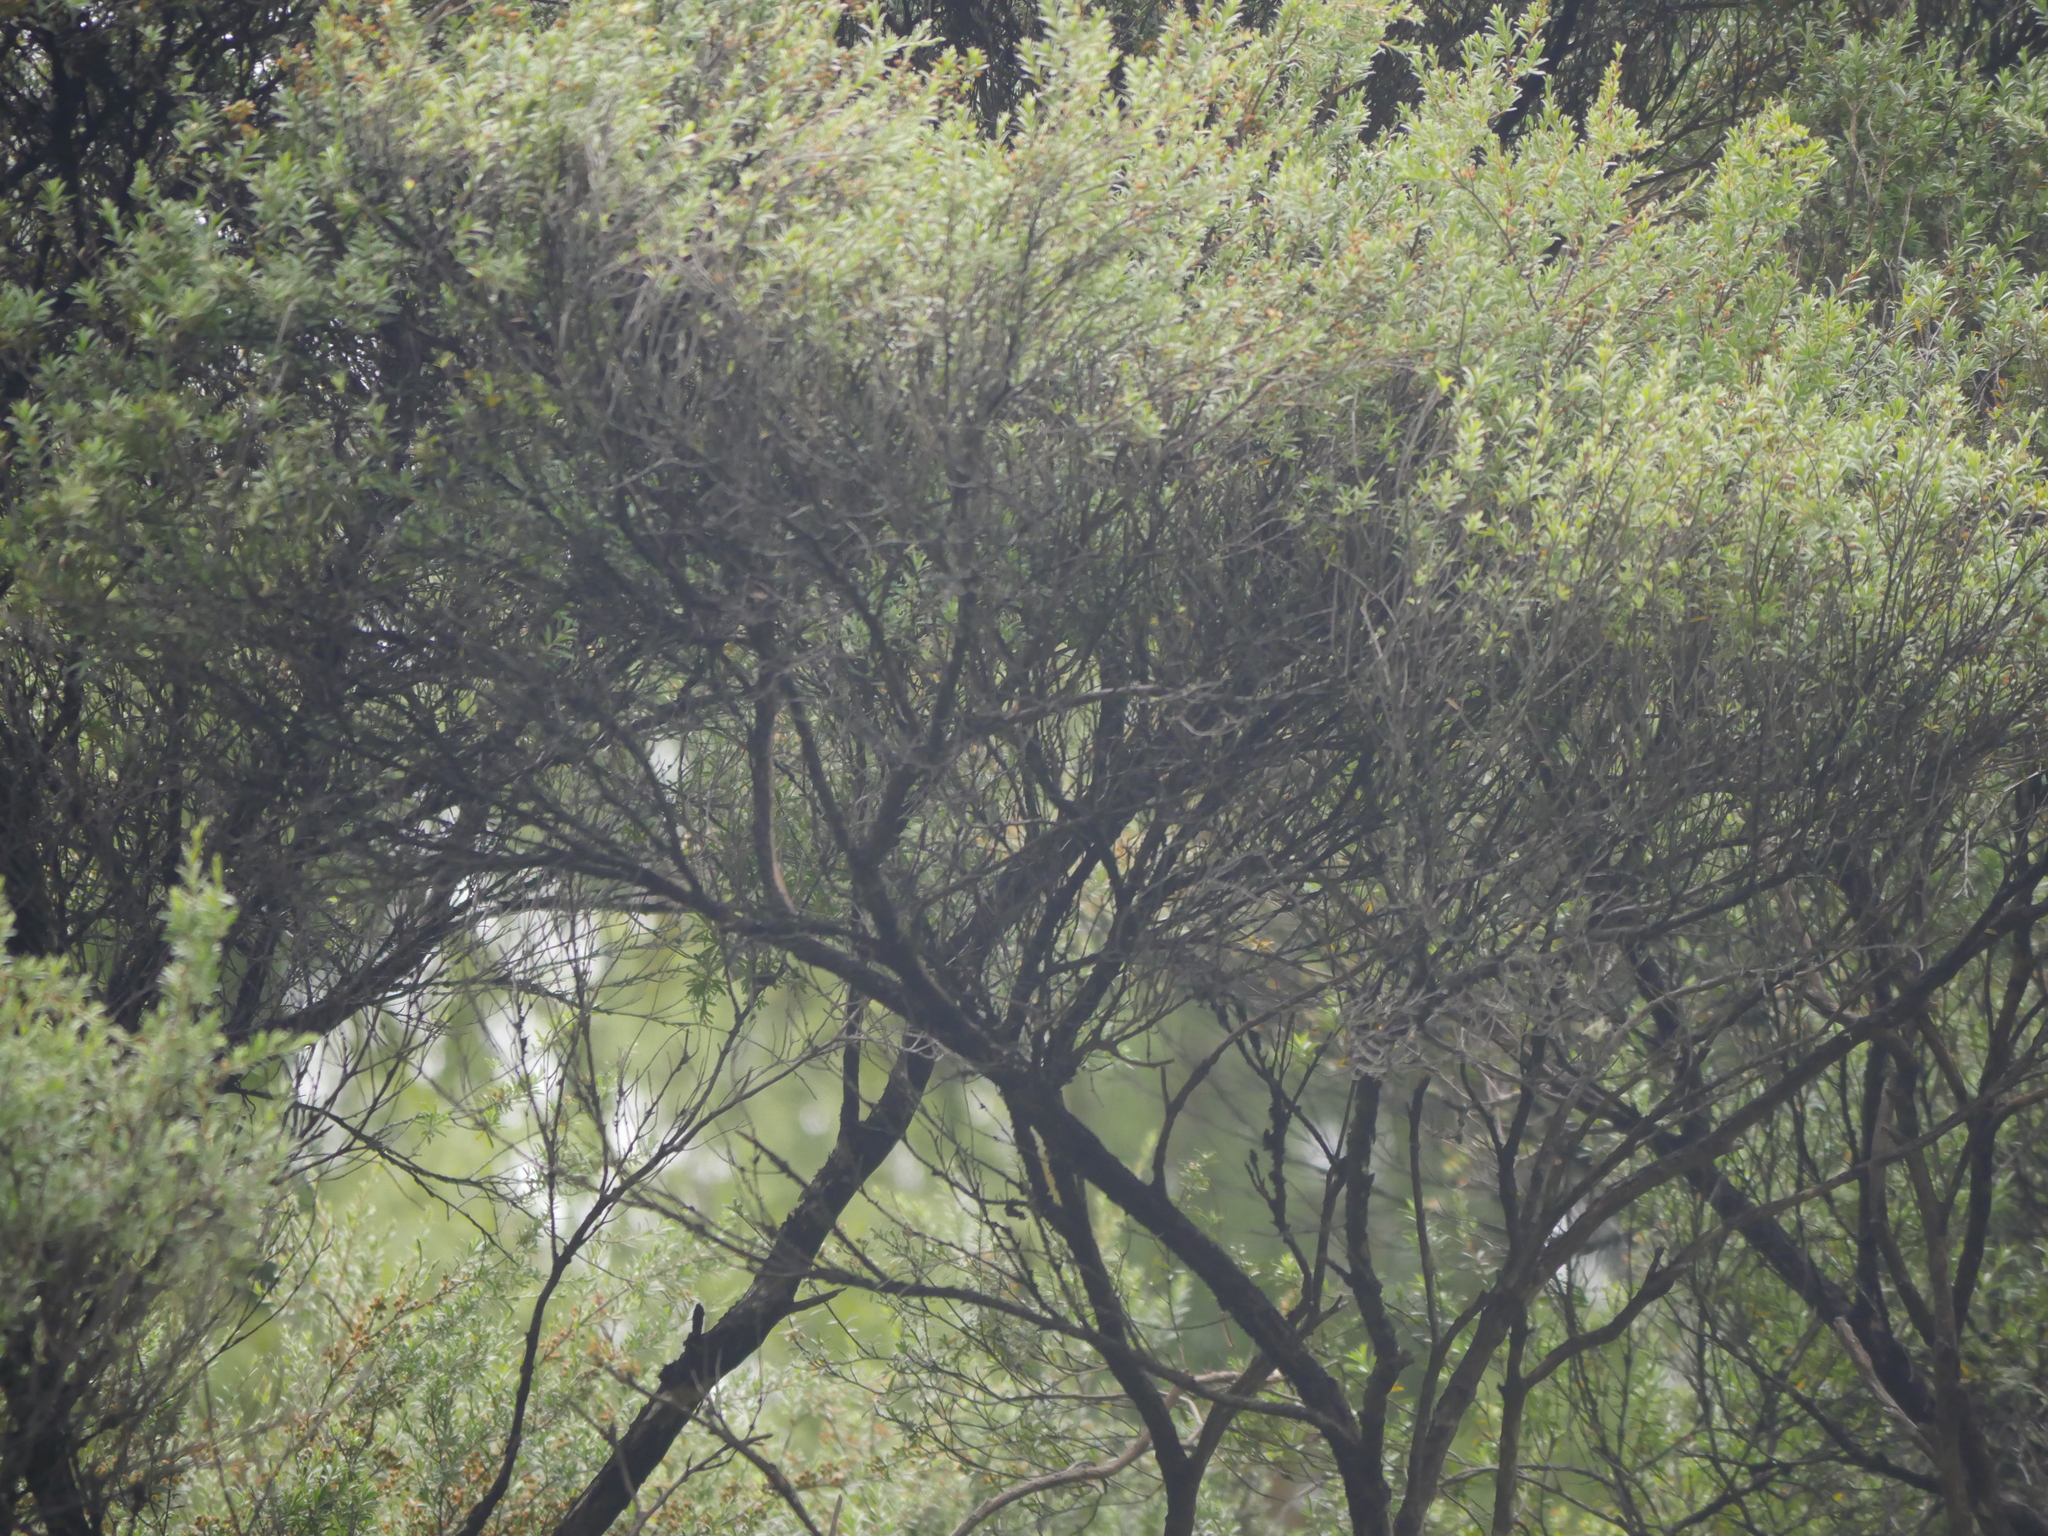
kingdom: Plantae
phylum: Tracheophyta
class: Magnoliopsida
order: Myrtales
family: Myrtaceae
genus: Kunzea
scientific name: Kunzea robusta
